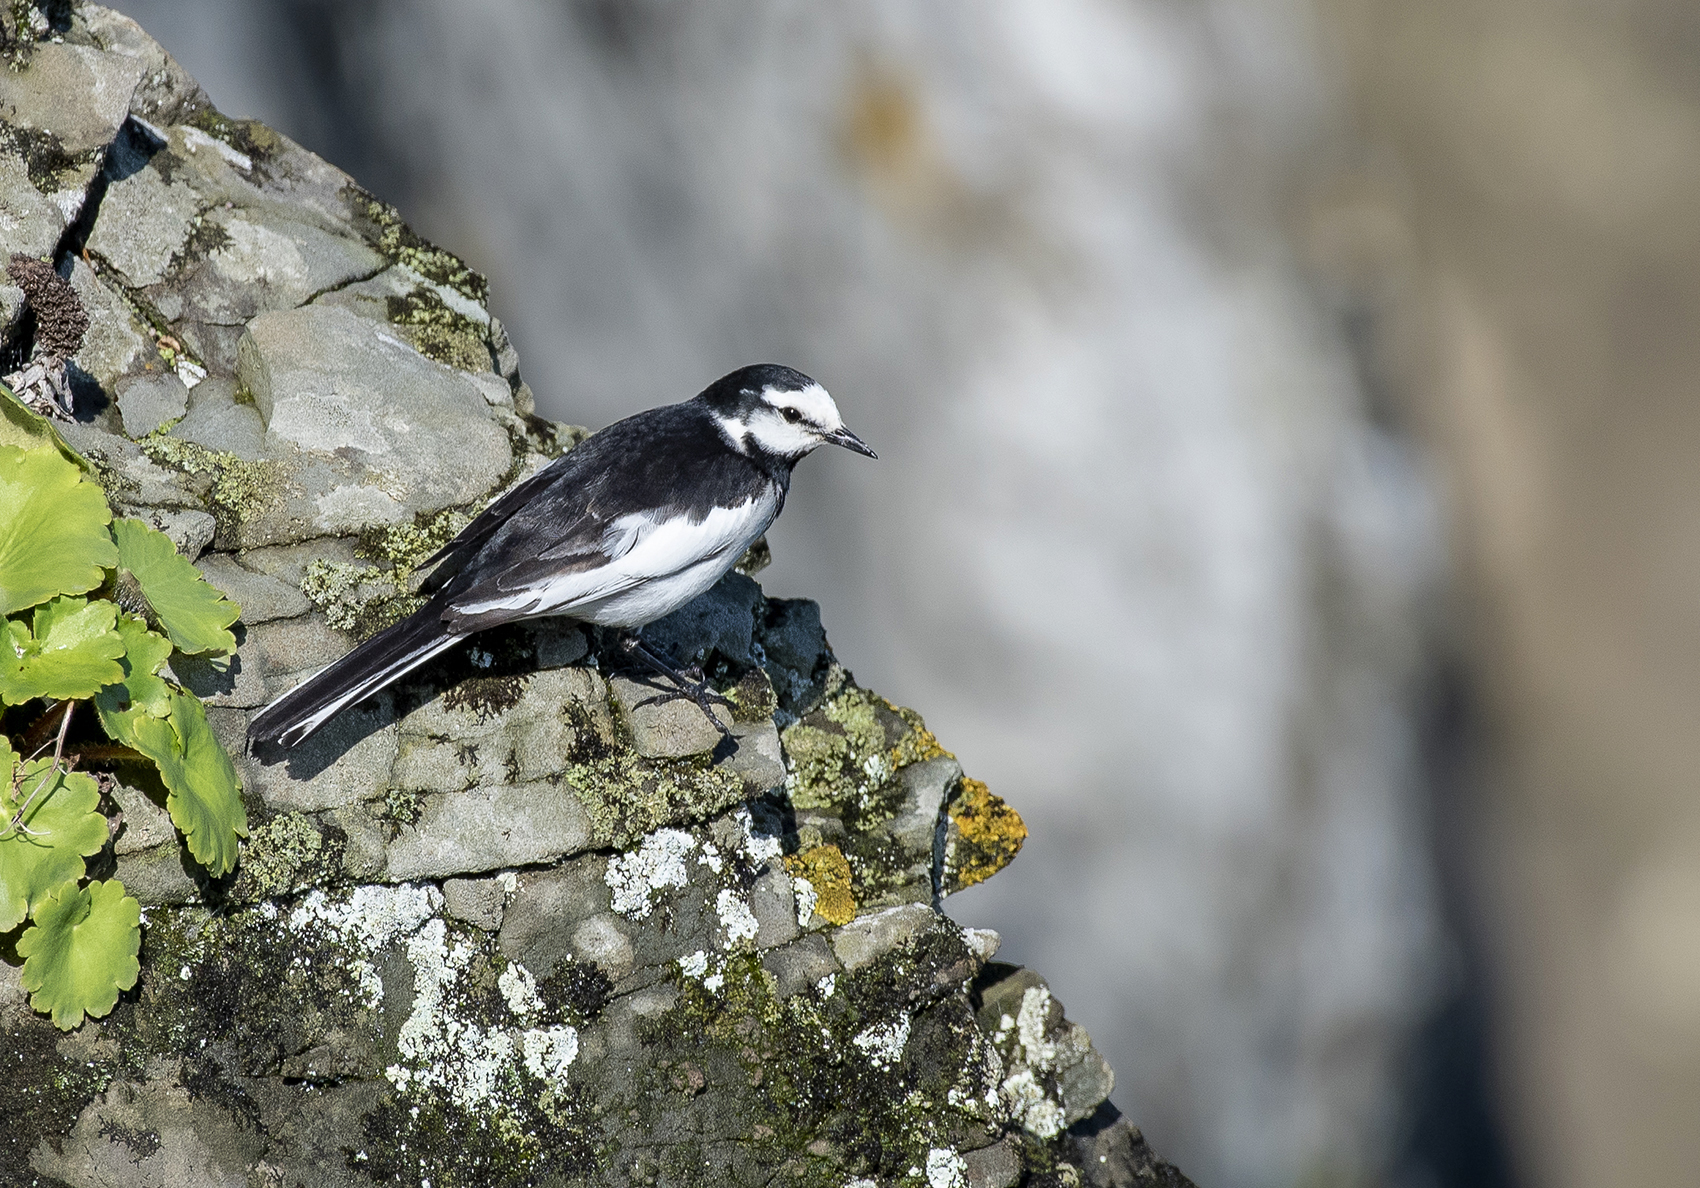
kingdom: Animalia
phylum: Chordata
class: Aves
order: Passeriformes
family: Motacillidae
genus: Motacilla
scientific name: Motacilla alba
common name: White wagtail
